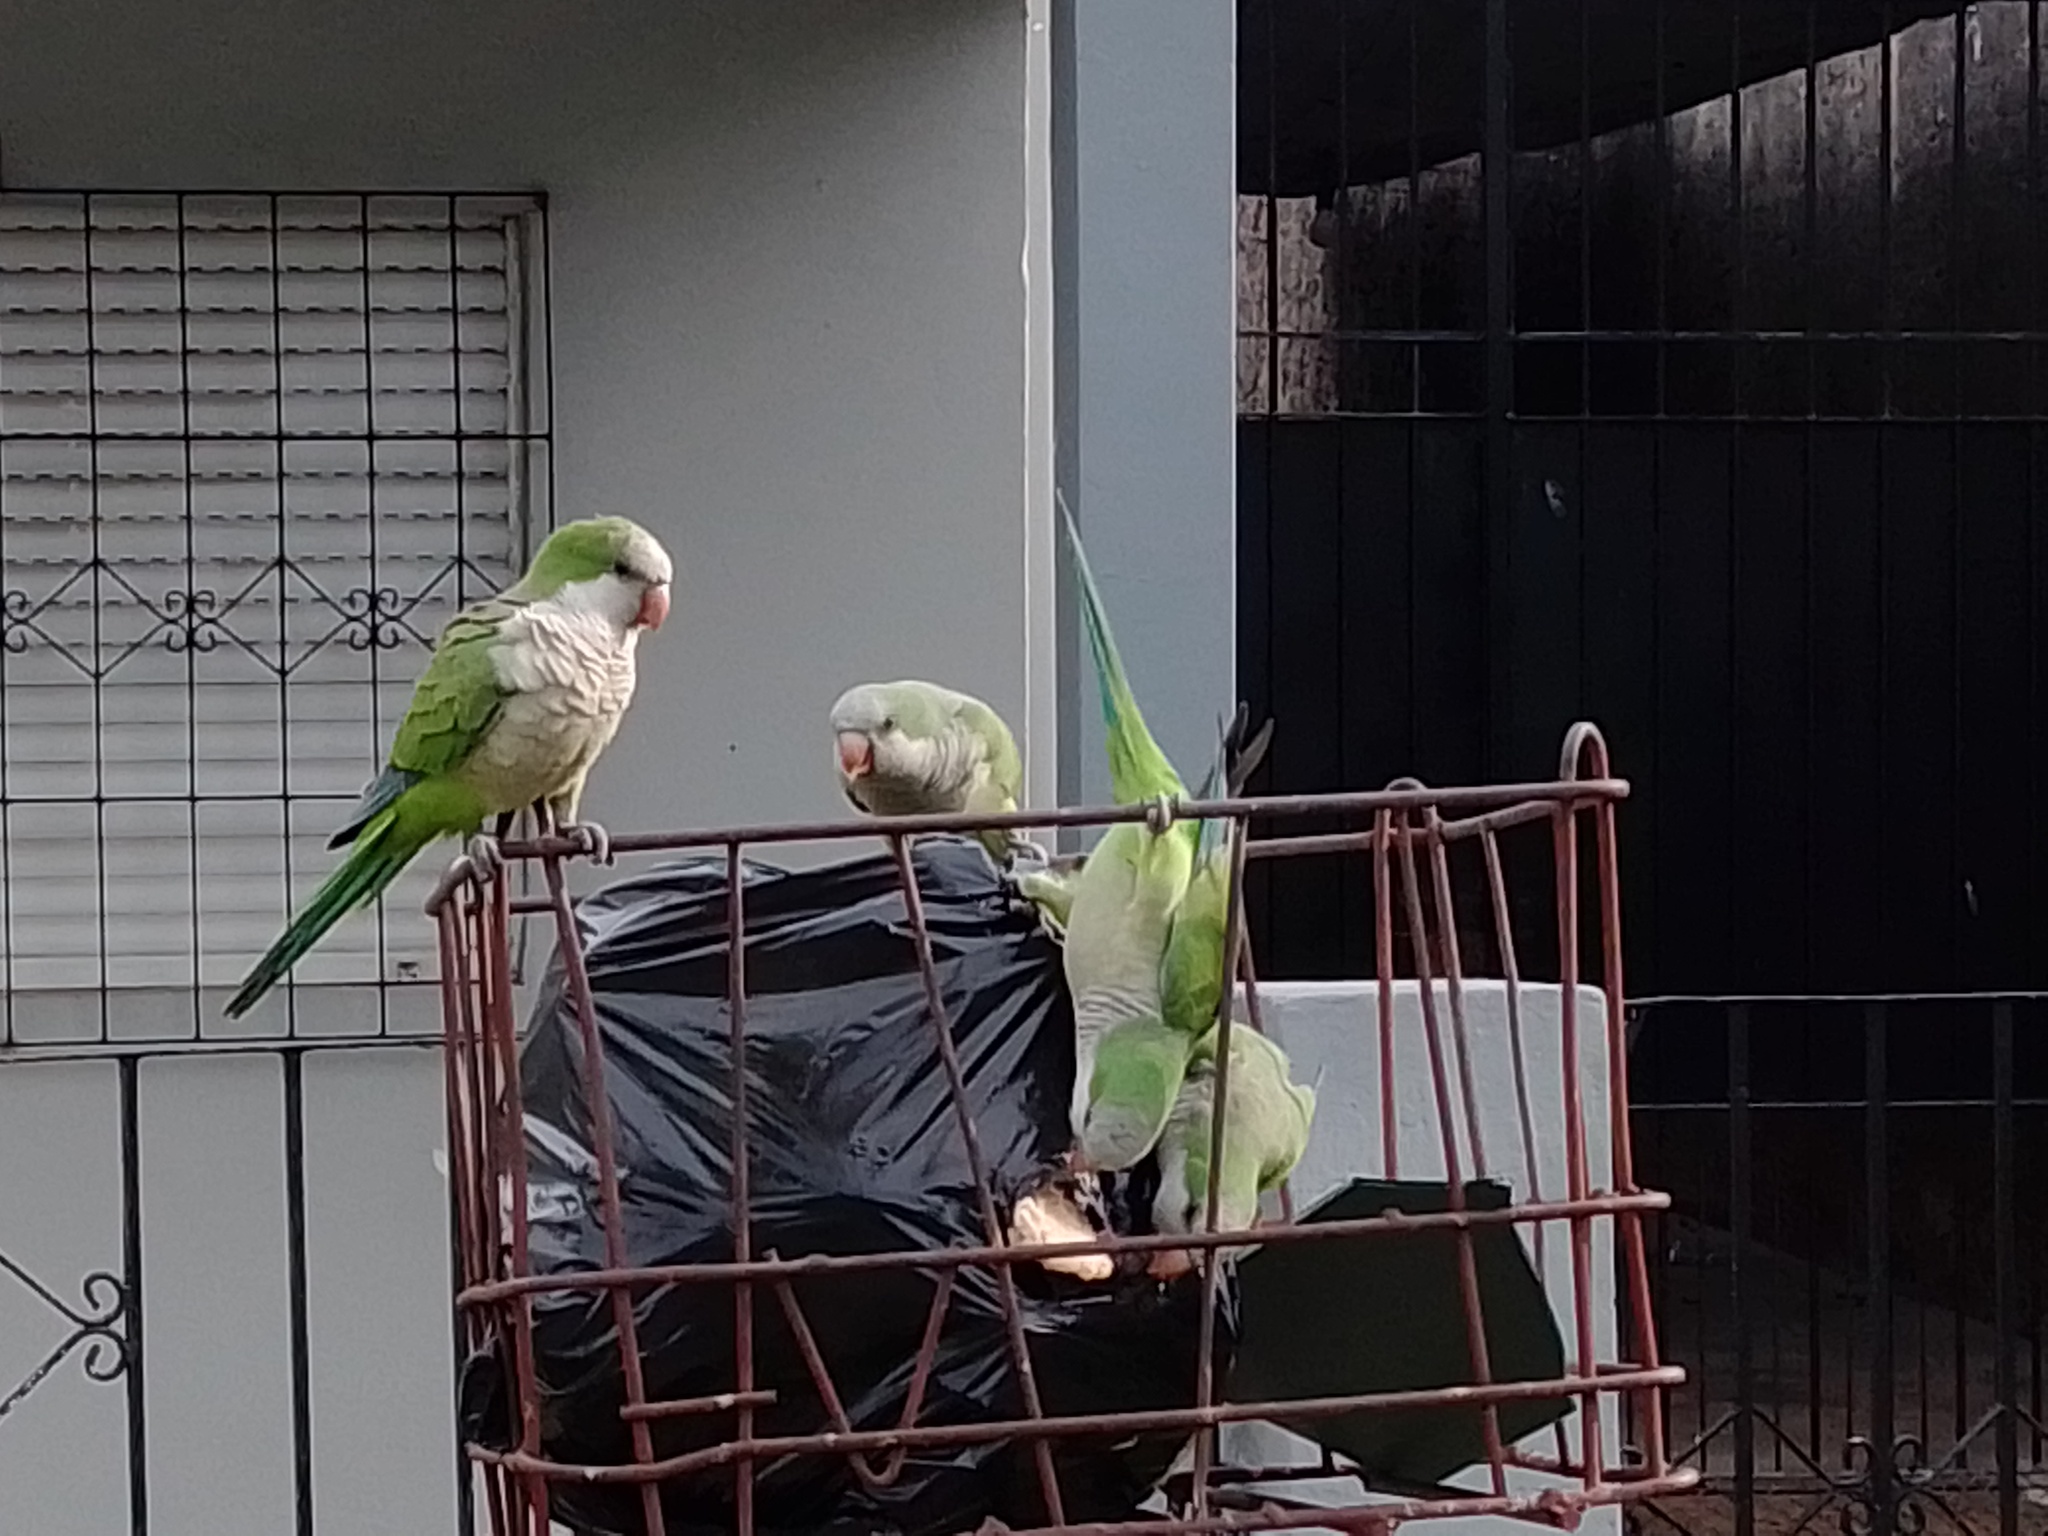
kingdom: Animalia
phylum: Chordata
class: Aves
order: Psittaciformes
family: Psittacidae
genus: Myiopsitta
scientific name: Myiopsitta monachus
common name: Monk parakeet
